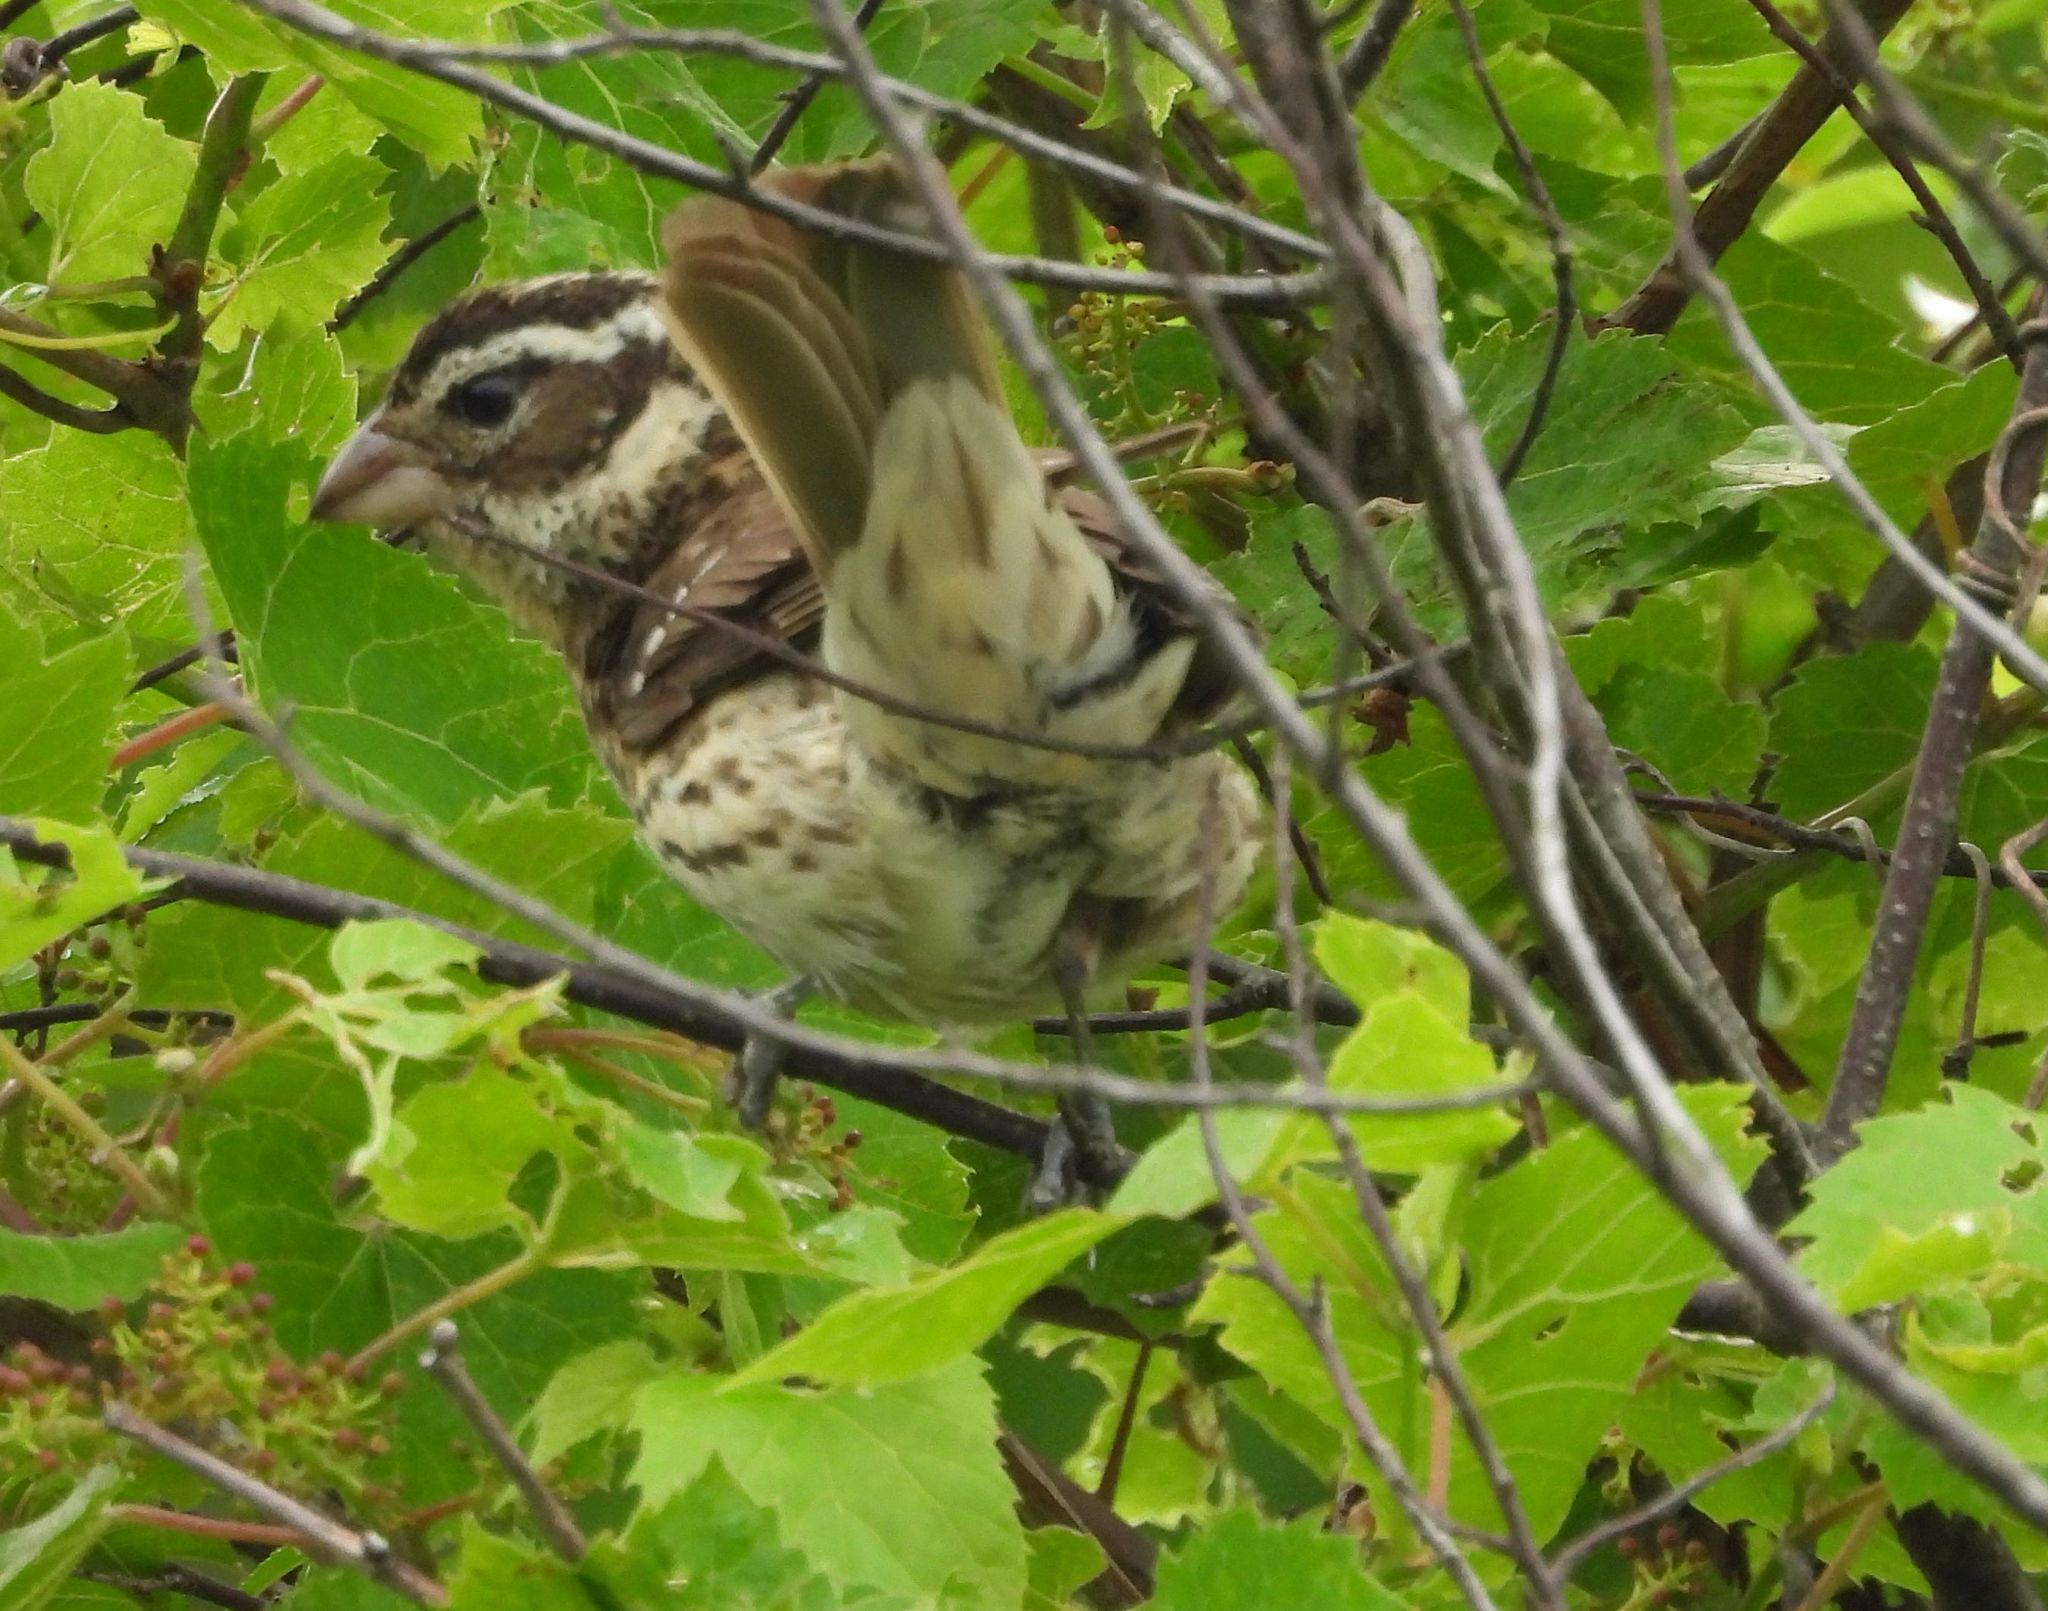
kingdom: Animalia
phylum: Chordata
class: Aves
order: Passeriformes
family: Cardinalidae
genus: Pheucticus
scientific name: Pheucticus ludovicianus
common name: Rose-breasted grosbeak
